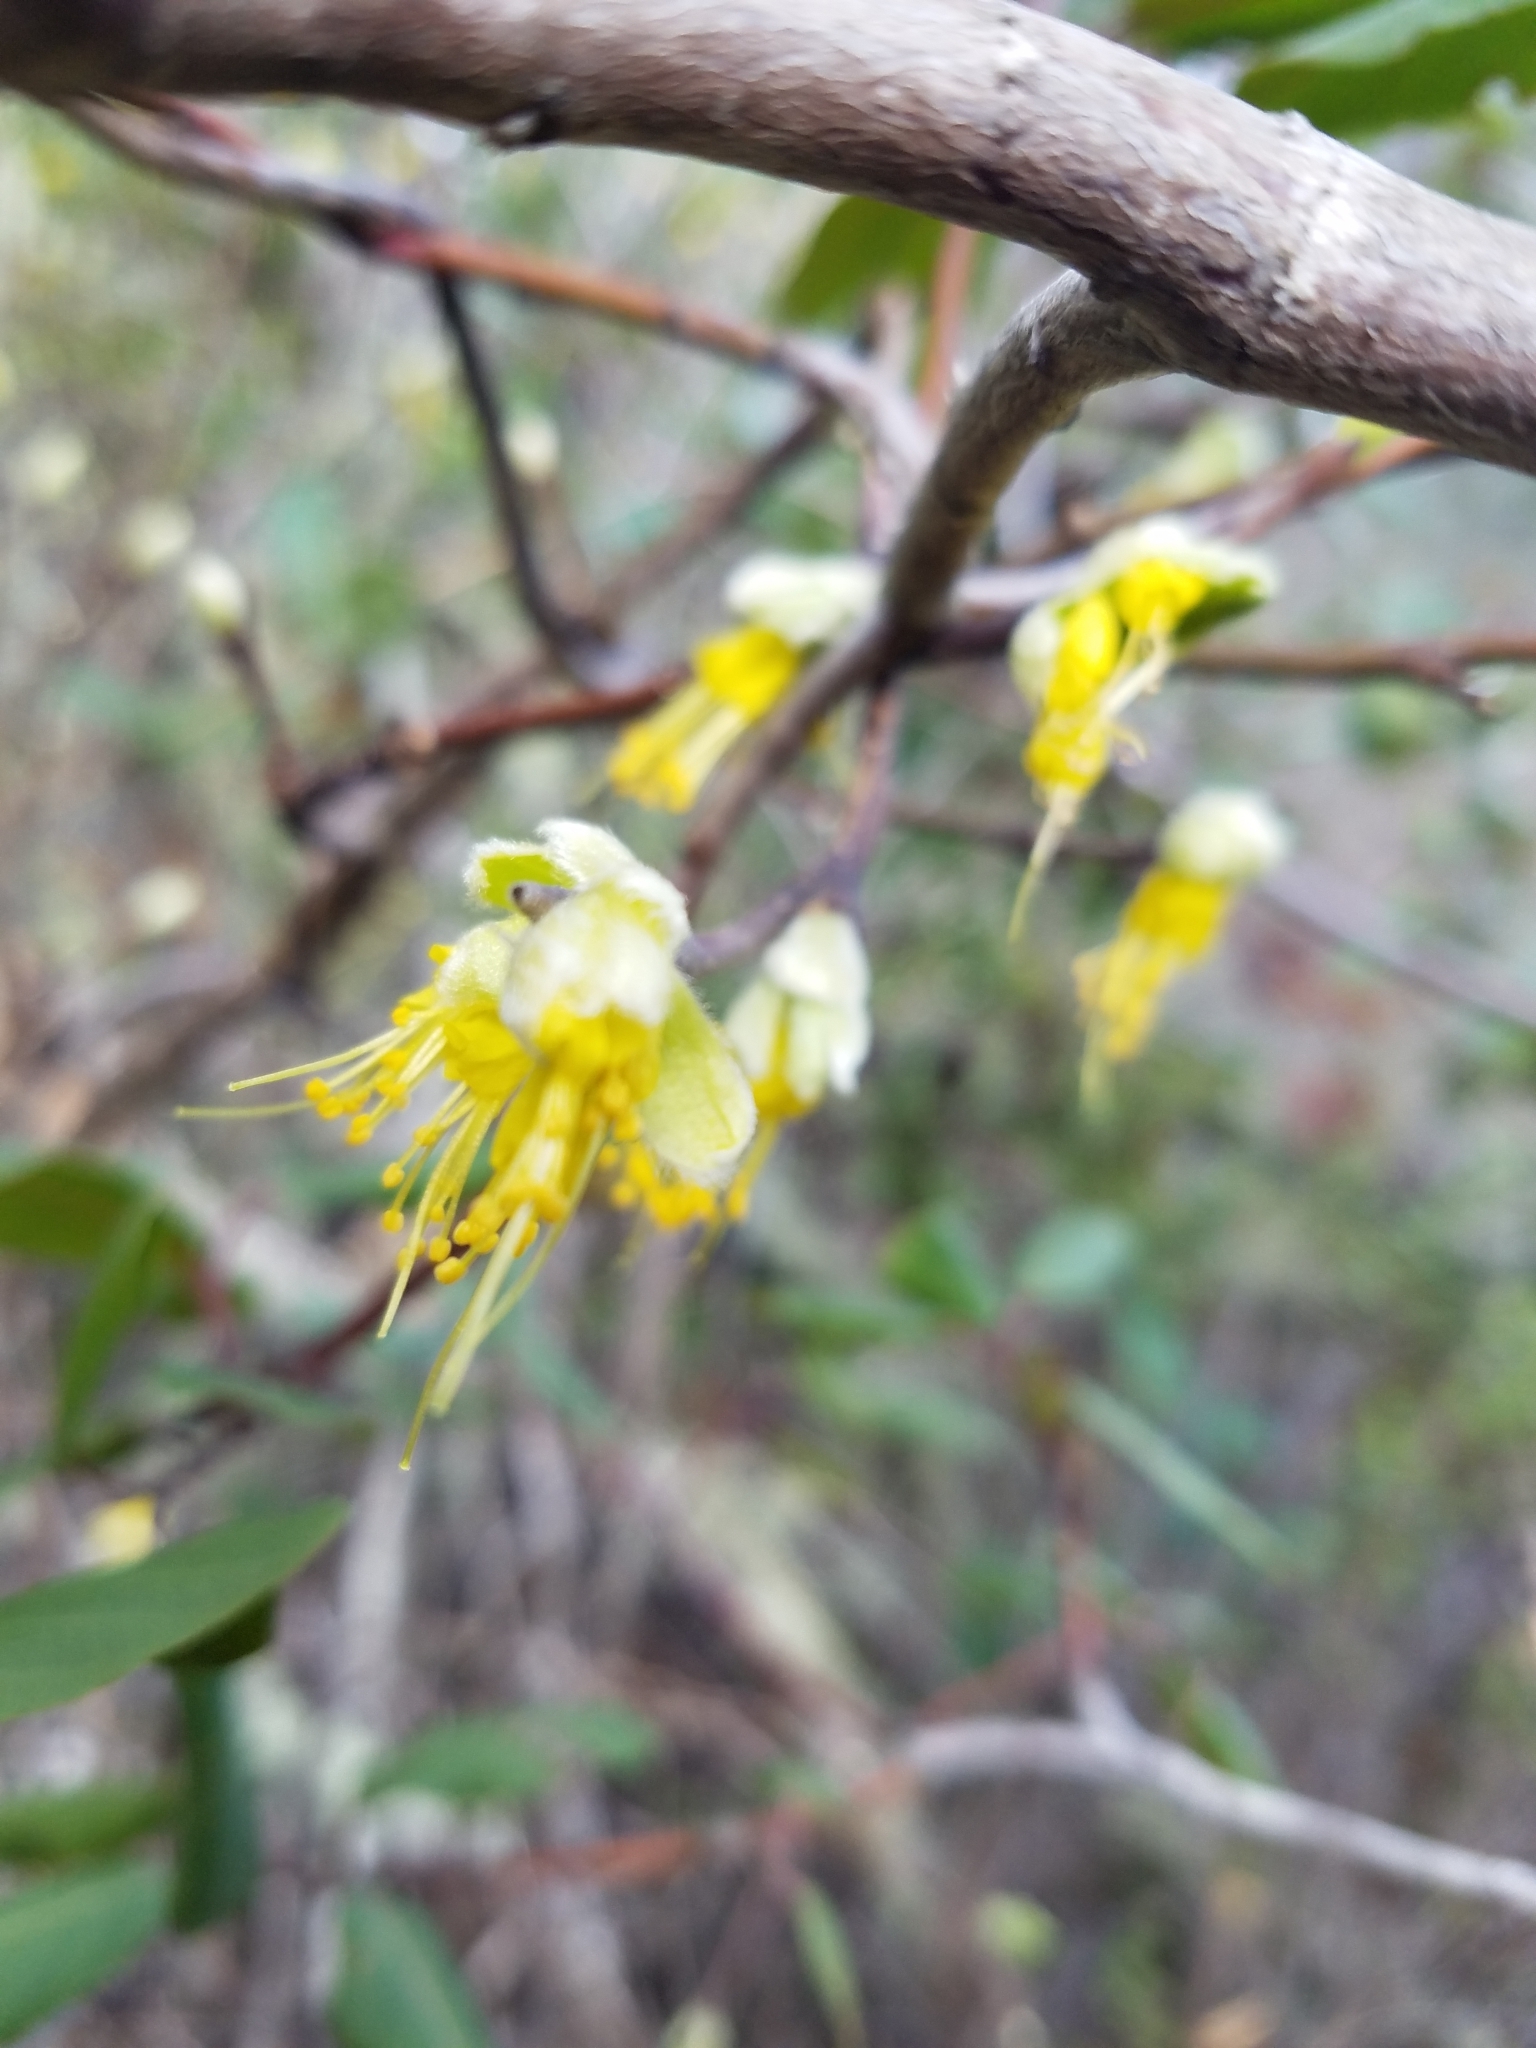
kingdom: Plantae
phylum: Tracheophyta
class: Magnoliopsida
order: Malvales
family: Thymelaeaceae
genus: Dirca
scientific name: Dirca occidentalis
